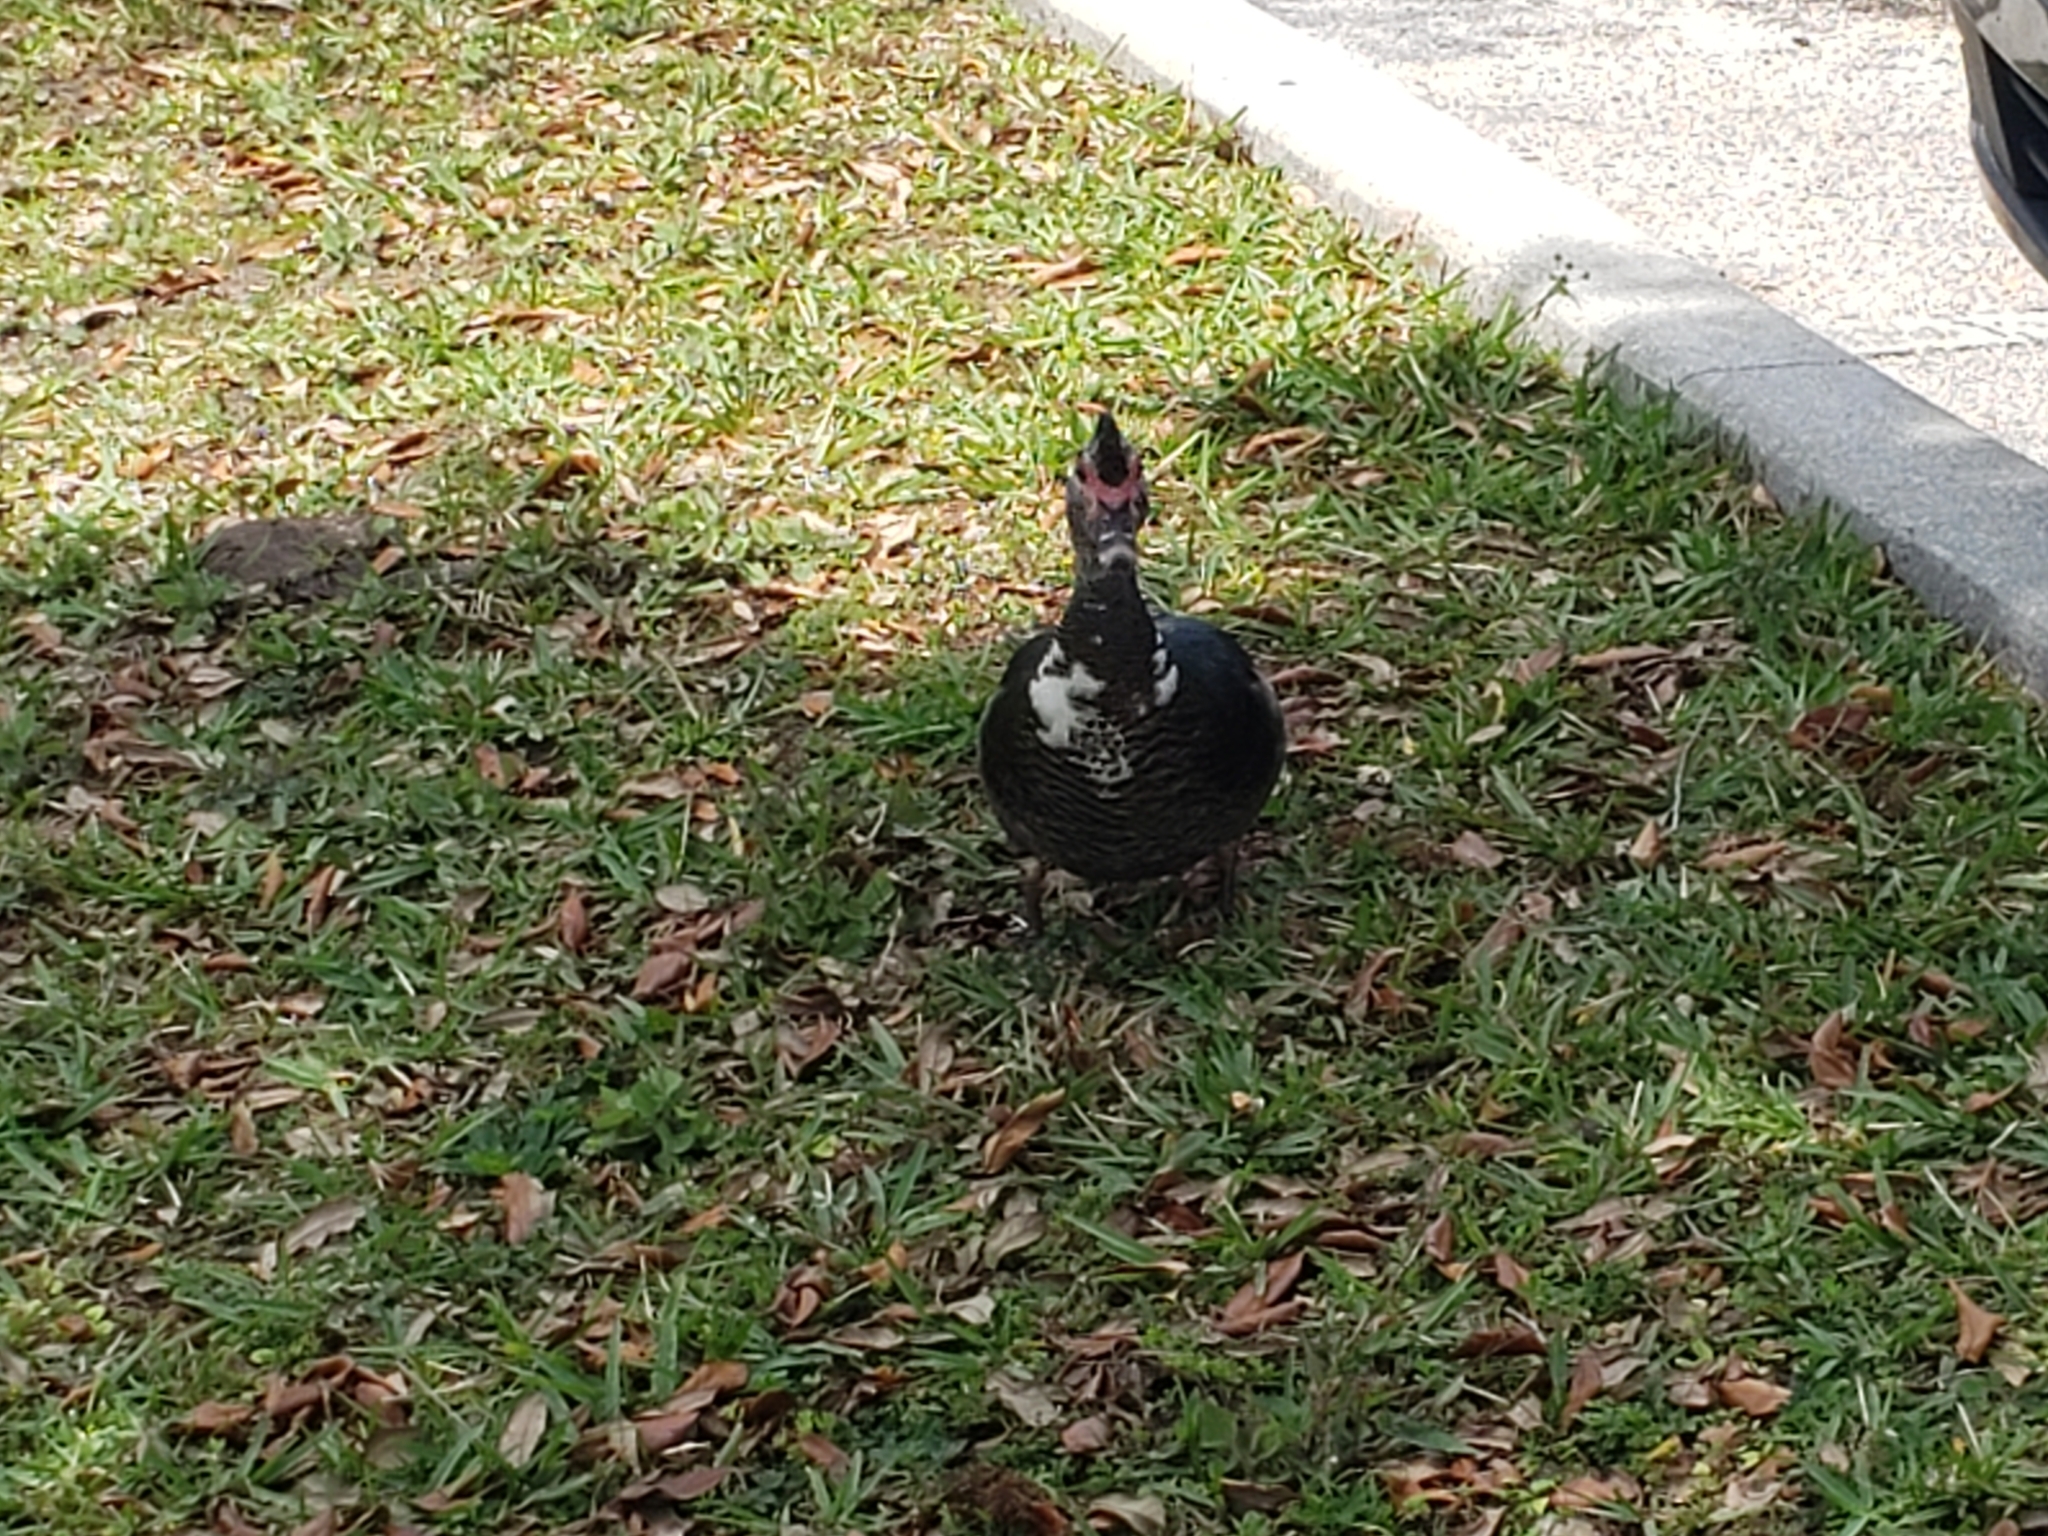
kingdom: Animalia
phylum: Chordata
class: Aves
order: Anseriformes
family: Anatidae
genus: Cairina
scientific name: Cairina moschata
